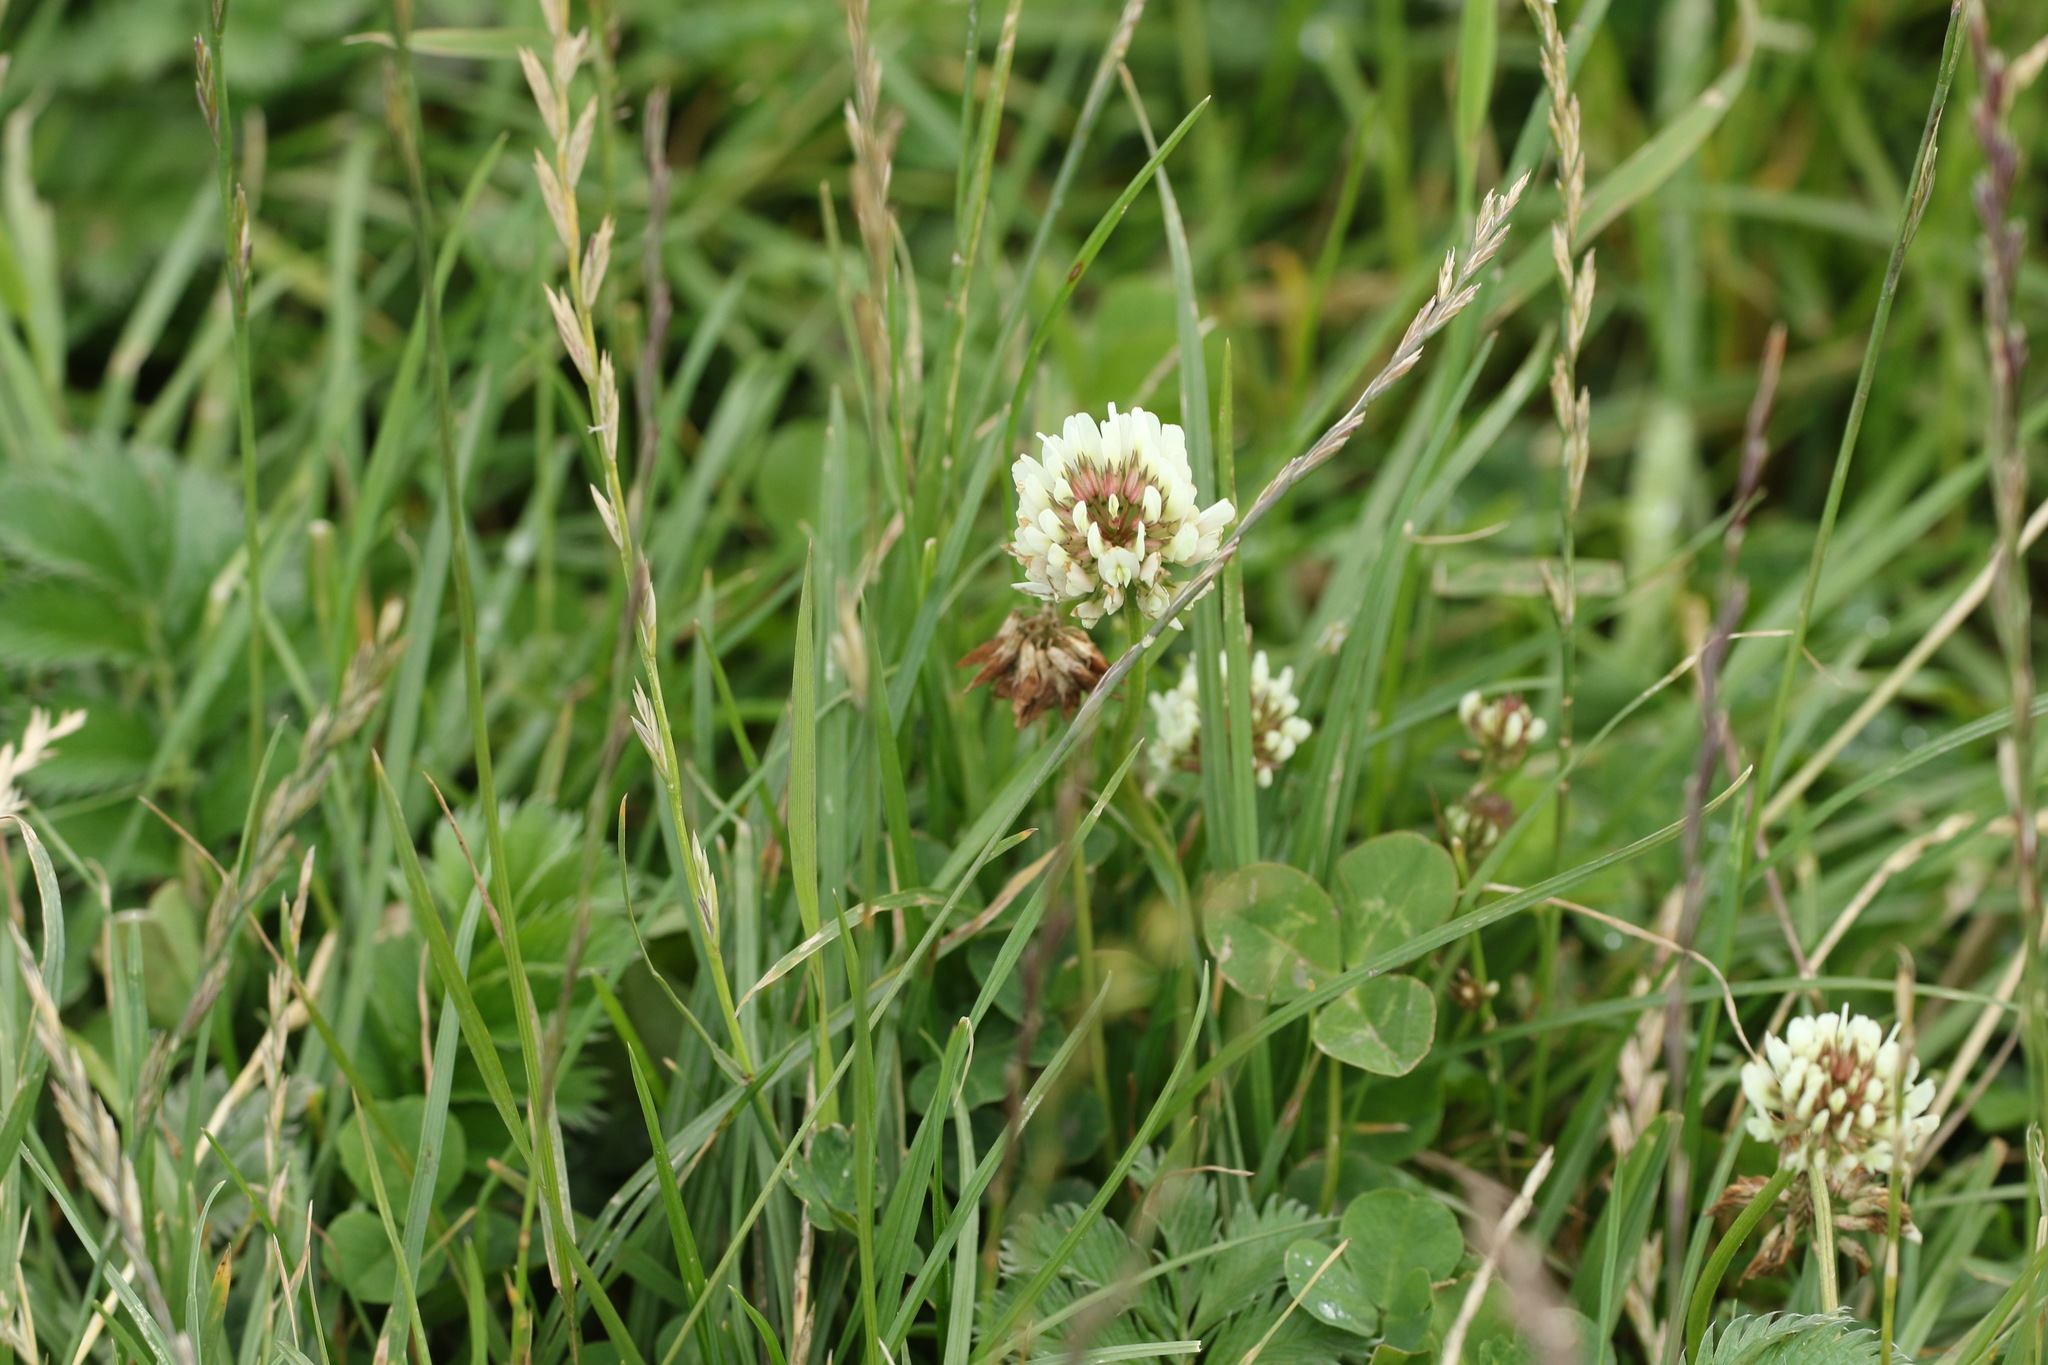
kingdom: Plantae
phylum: Tracheophyta
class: Magnoliopsida
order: Fabales
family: Fabaceae
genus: Trifolium
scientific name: Trifolium repens
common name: White clover
